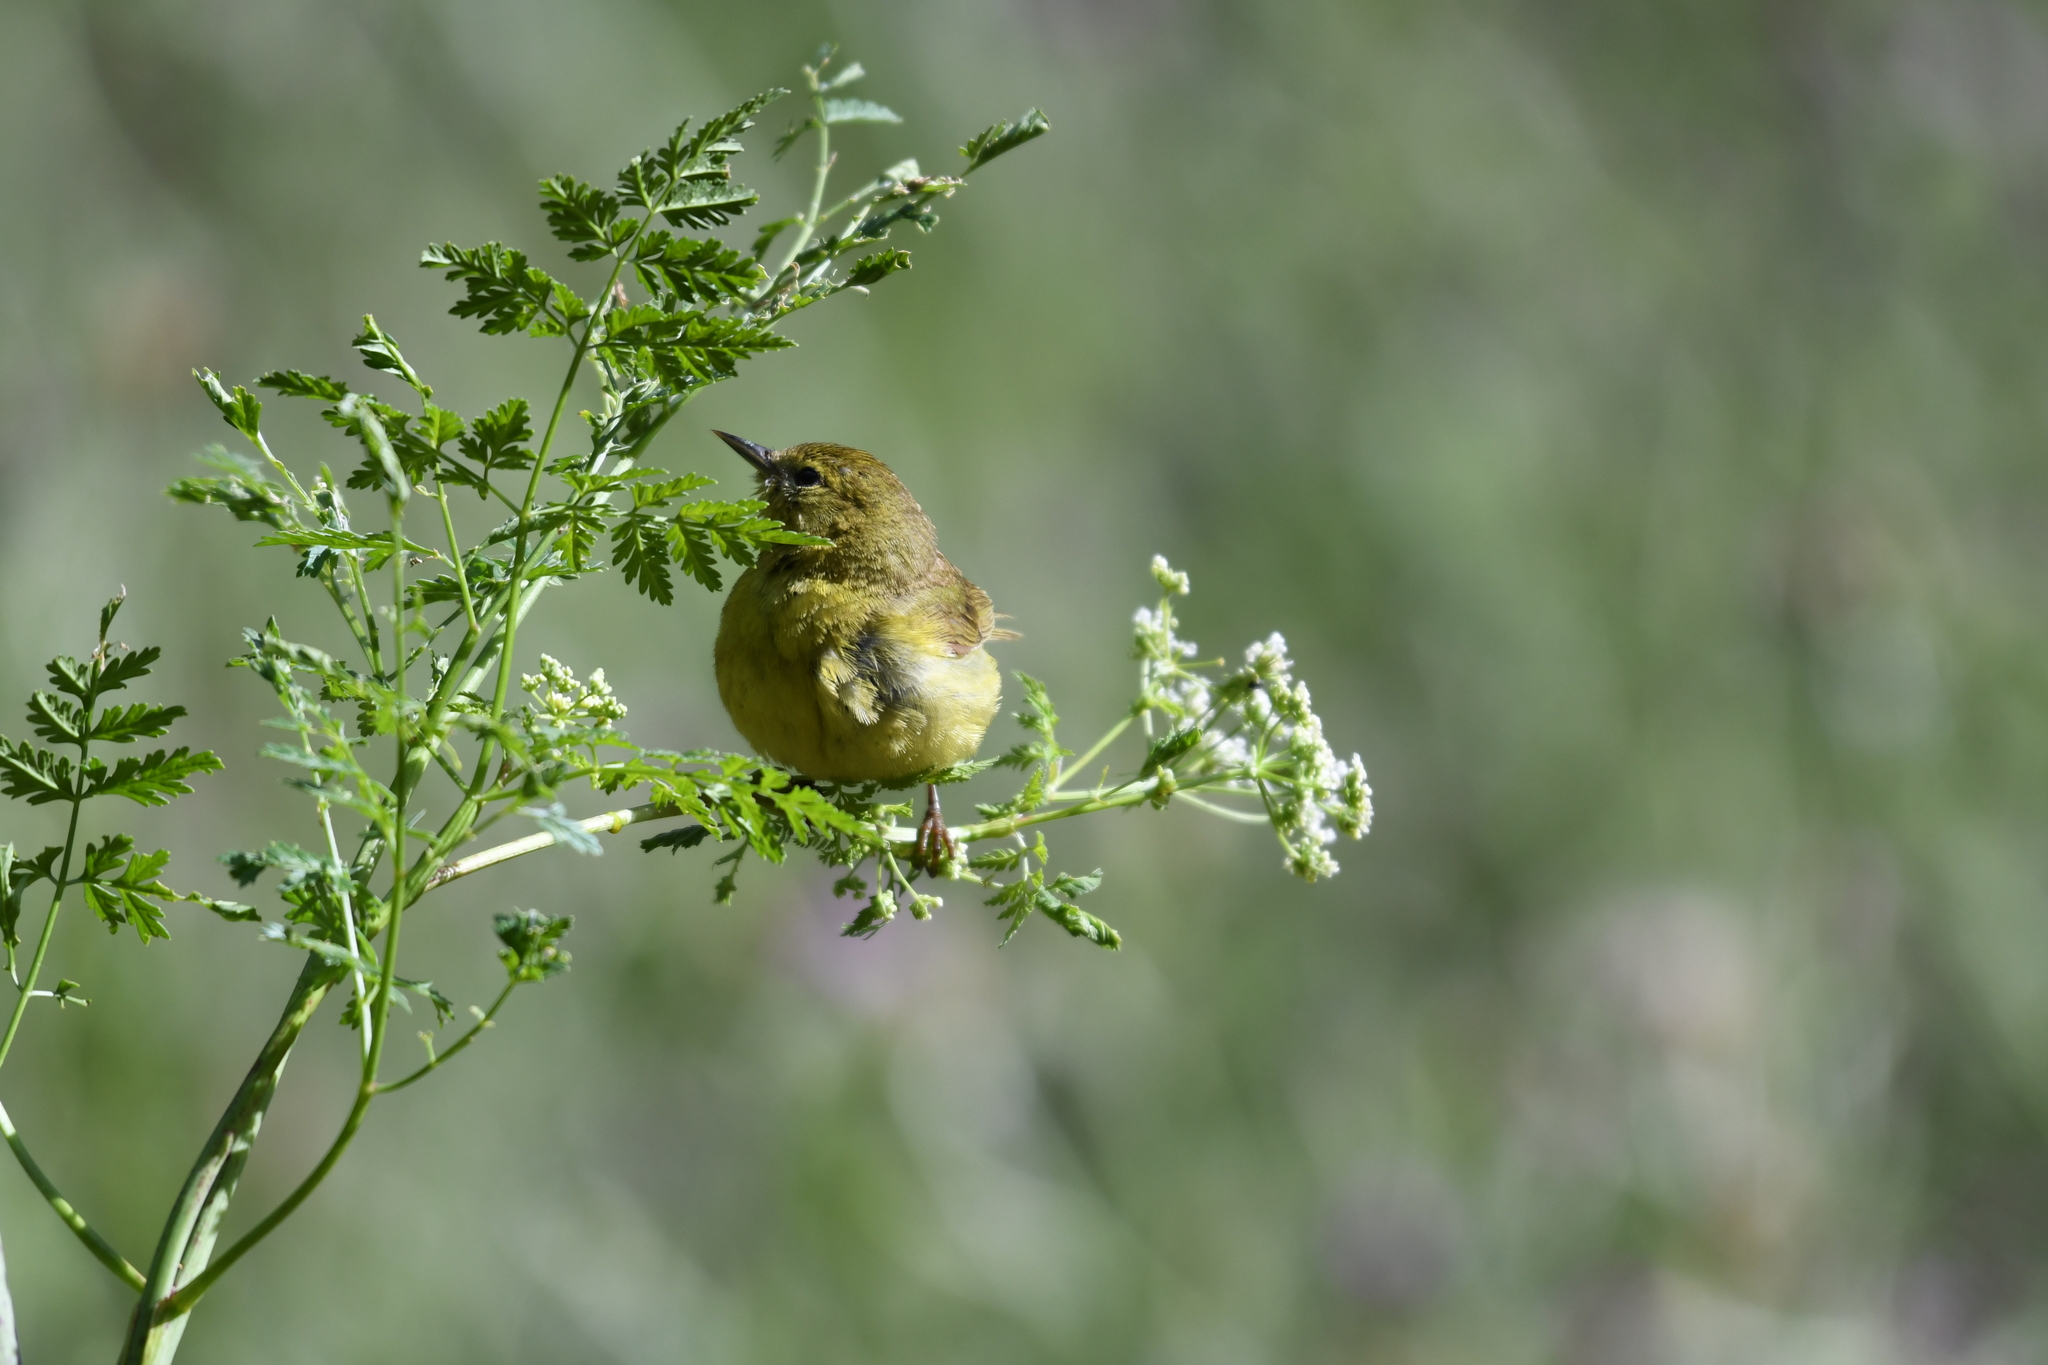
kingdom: Animalia
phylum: Chordata
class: Aves
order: Passeriformes
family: Parulidae
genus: Leiothlypis
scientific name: Leiothlypis celata
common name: Orange-crowned warbler
